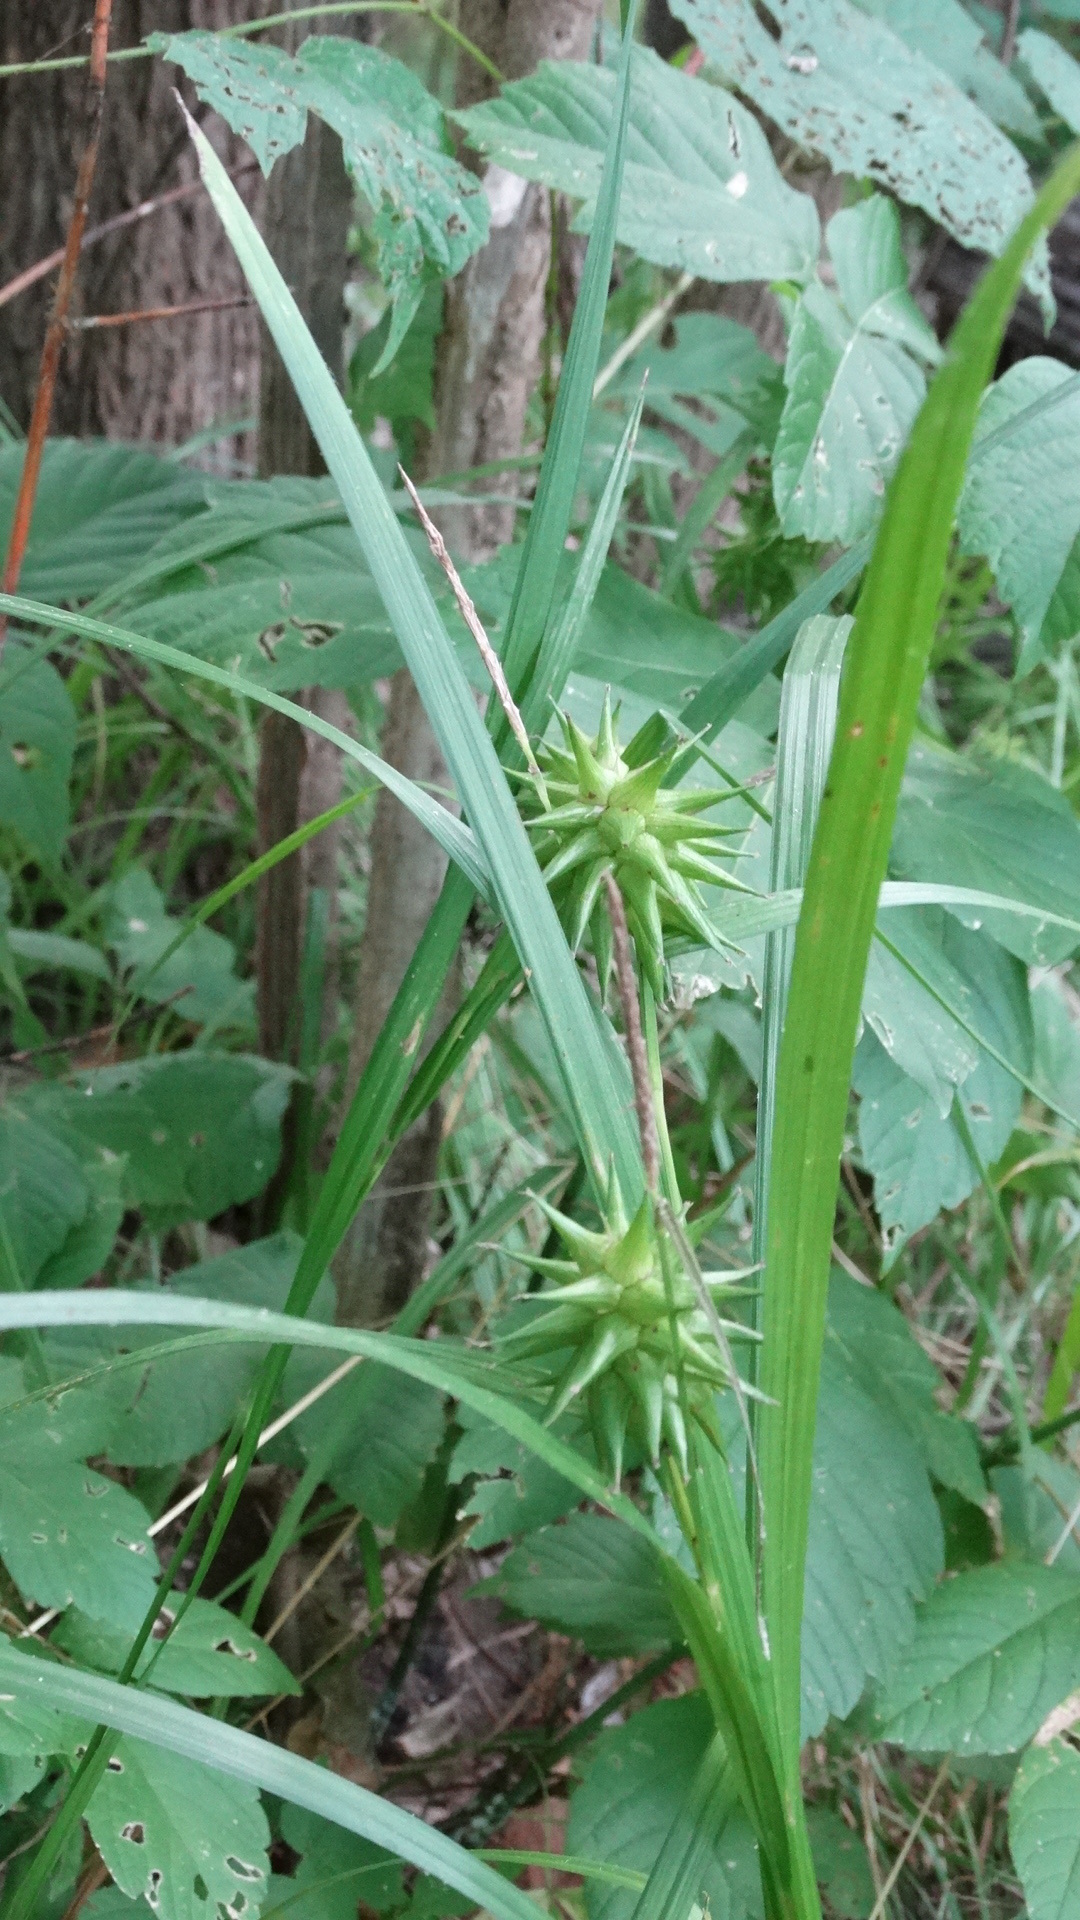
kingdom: Plantae
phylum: Tracheophyta
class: Liliopsida
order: Poales
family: Cyperaceae
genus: Carex
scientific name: Carex grayi
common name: Asa gray's sedge
